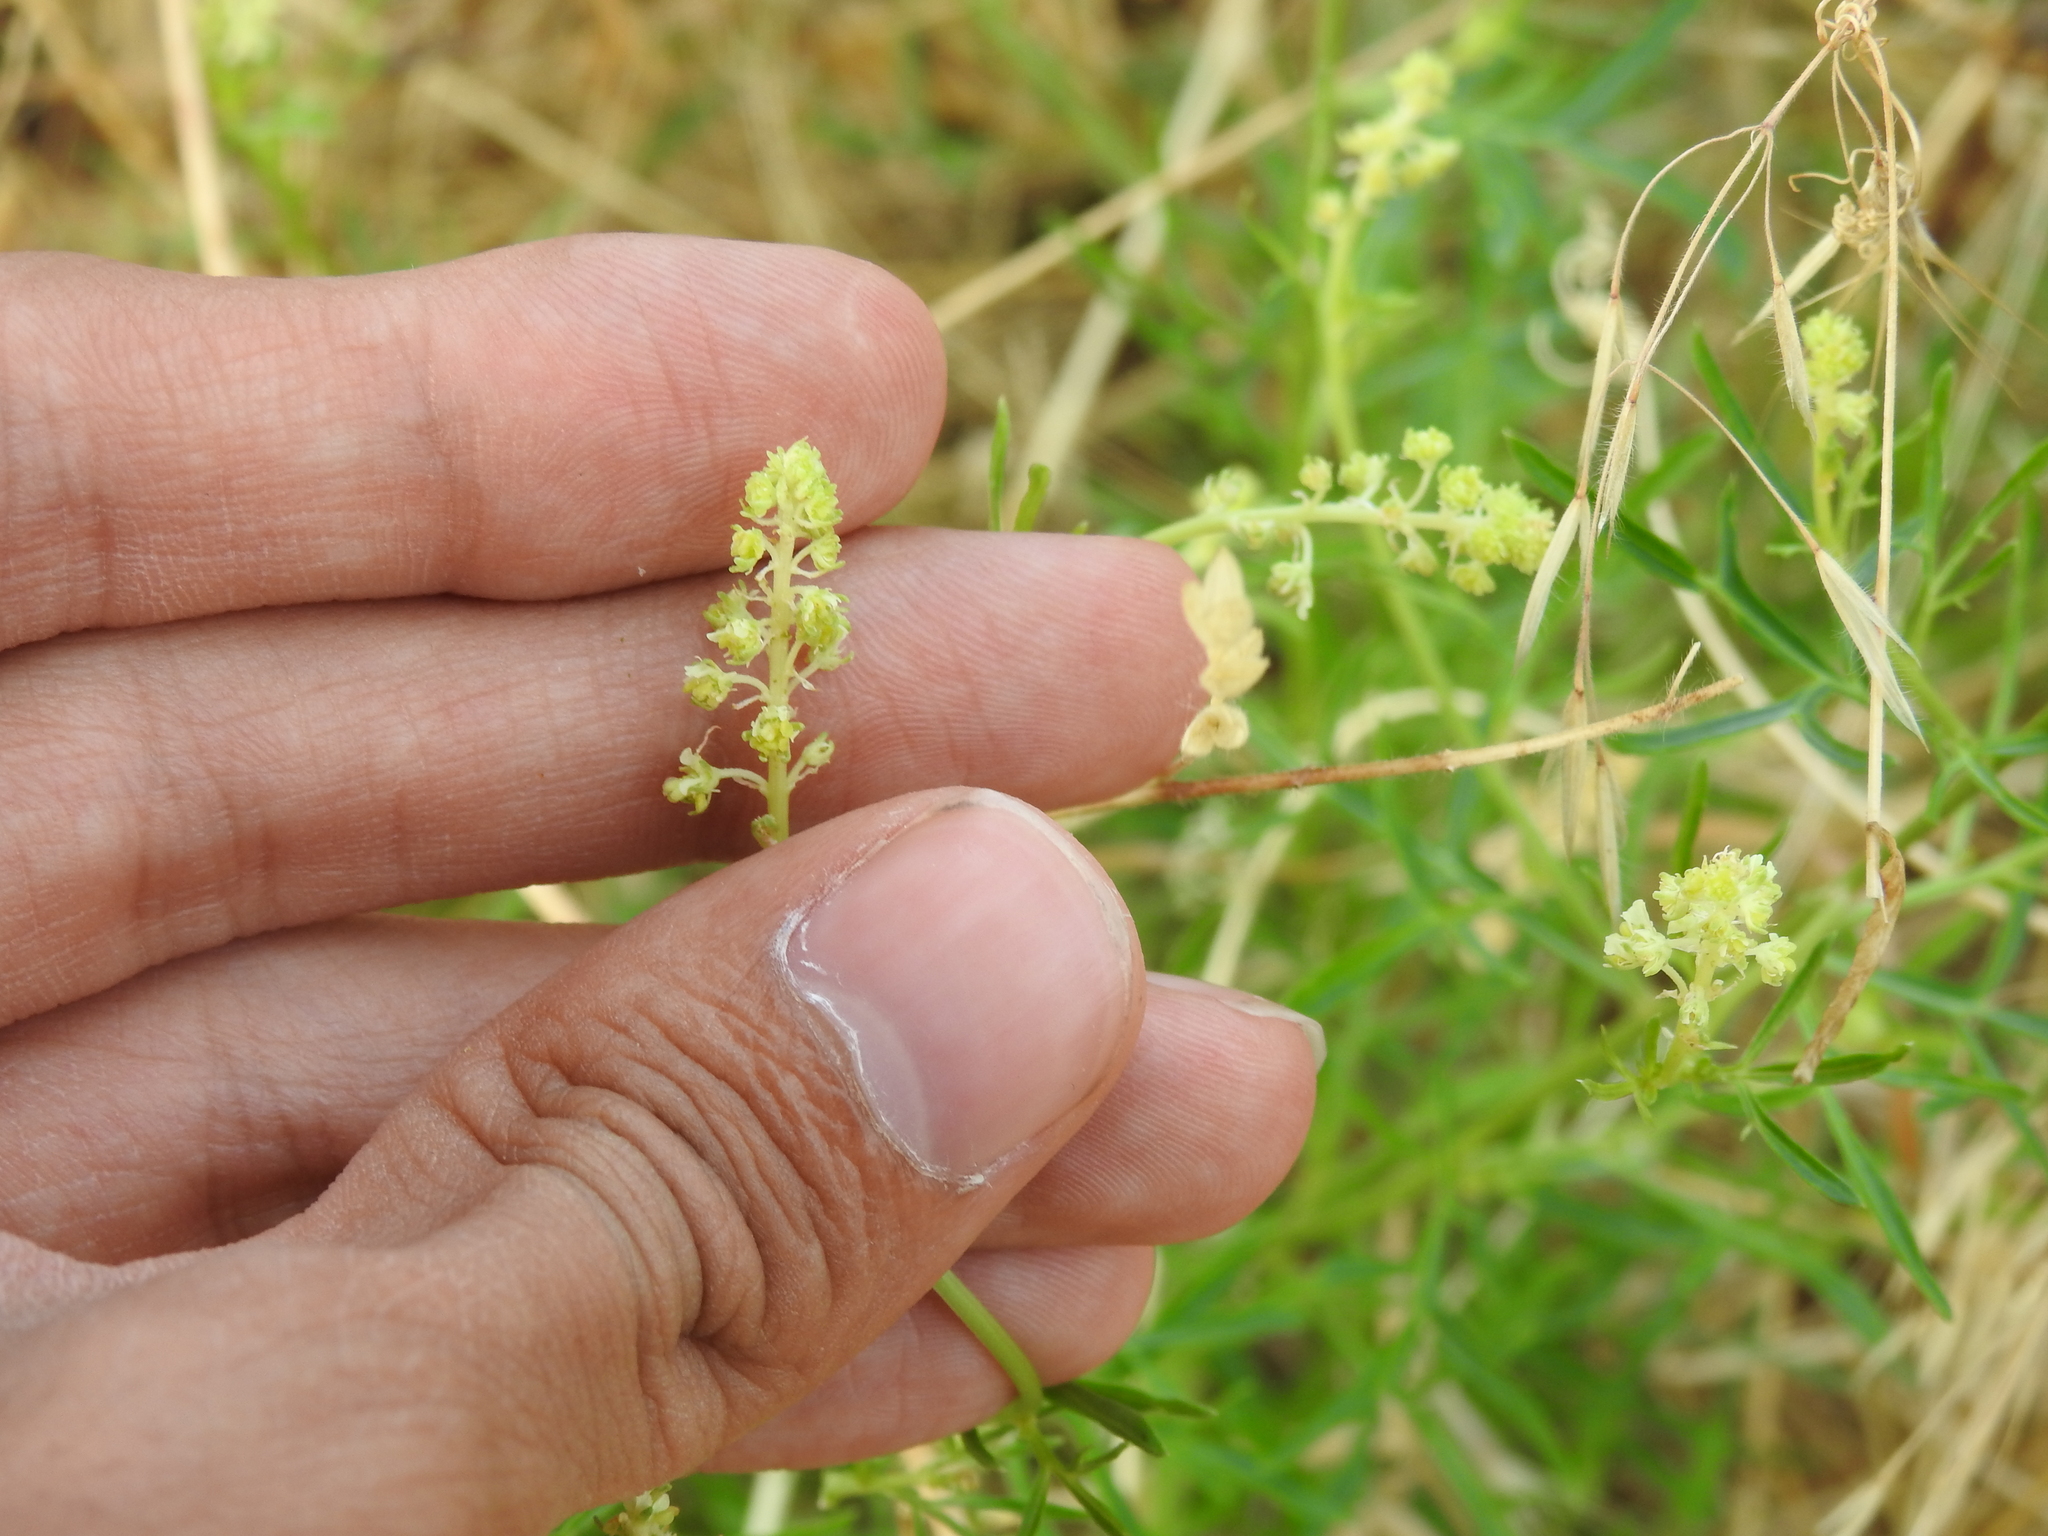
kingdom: Plantae
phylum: Tracheophyta
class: Magnoliopsida
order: Brassicales
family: Resedaceae
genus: Reseda
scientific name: Reseda lutea
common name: Wild mignonette
